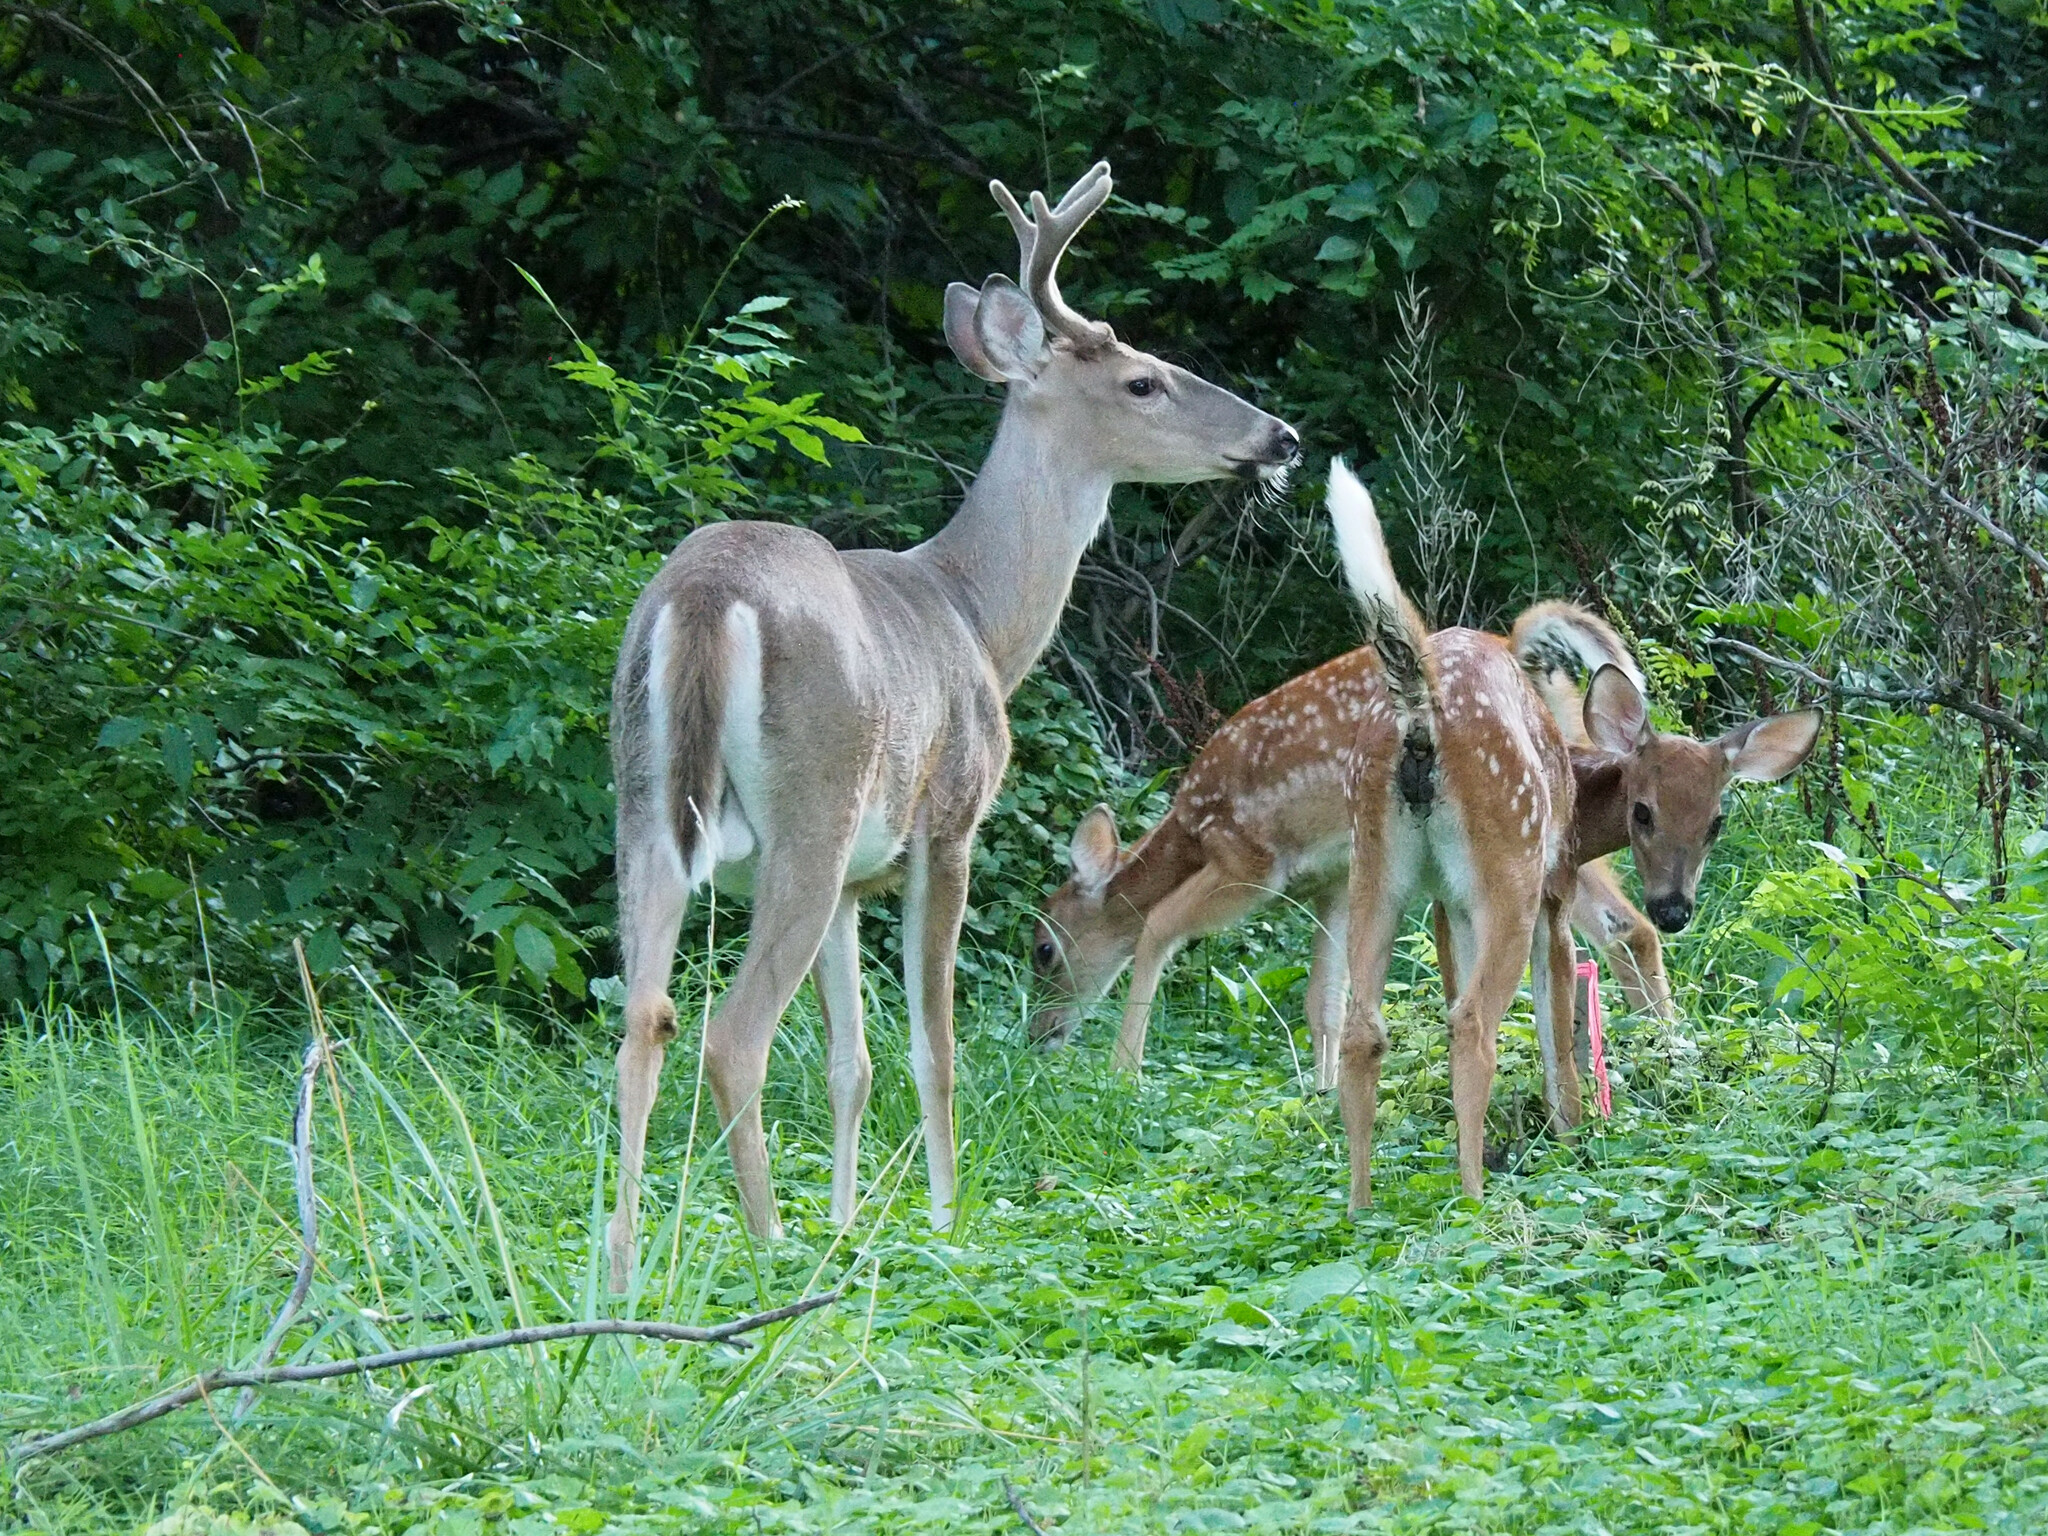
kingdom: Animalia
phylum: Chordata
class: Mammalia
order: Artiodactyla
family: Cervidae
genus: Odocoileus
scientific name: Odocoileus virginianus
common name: White-tailed deer
